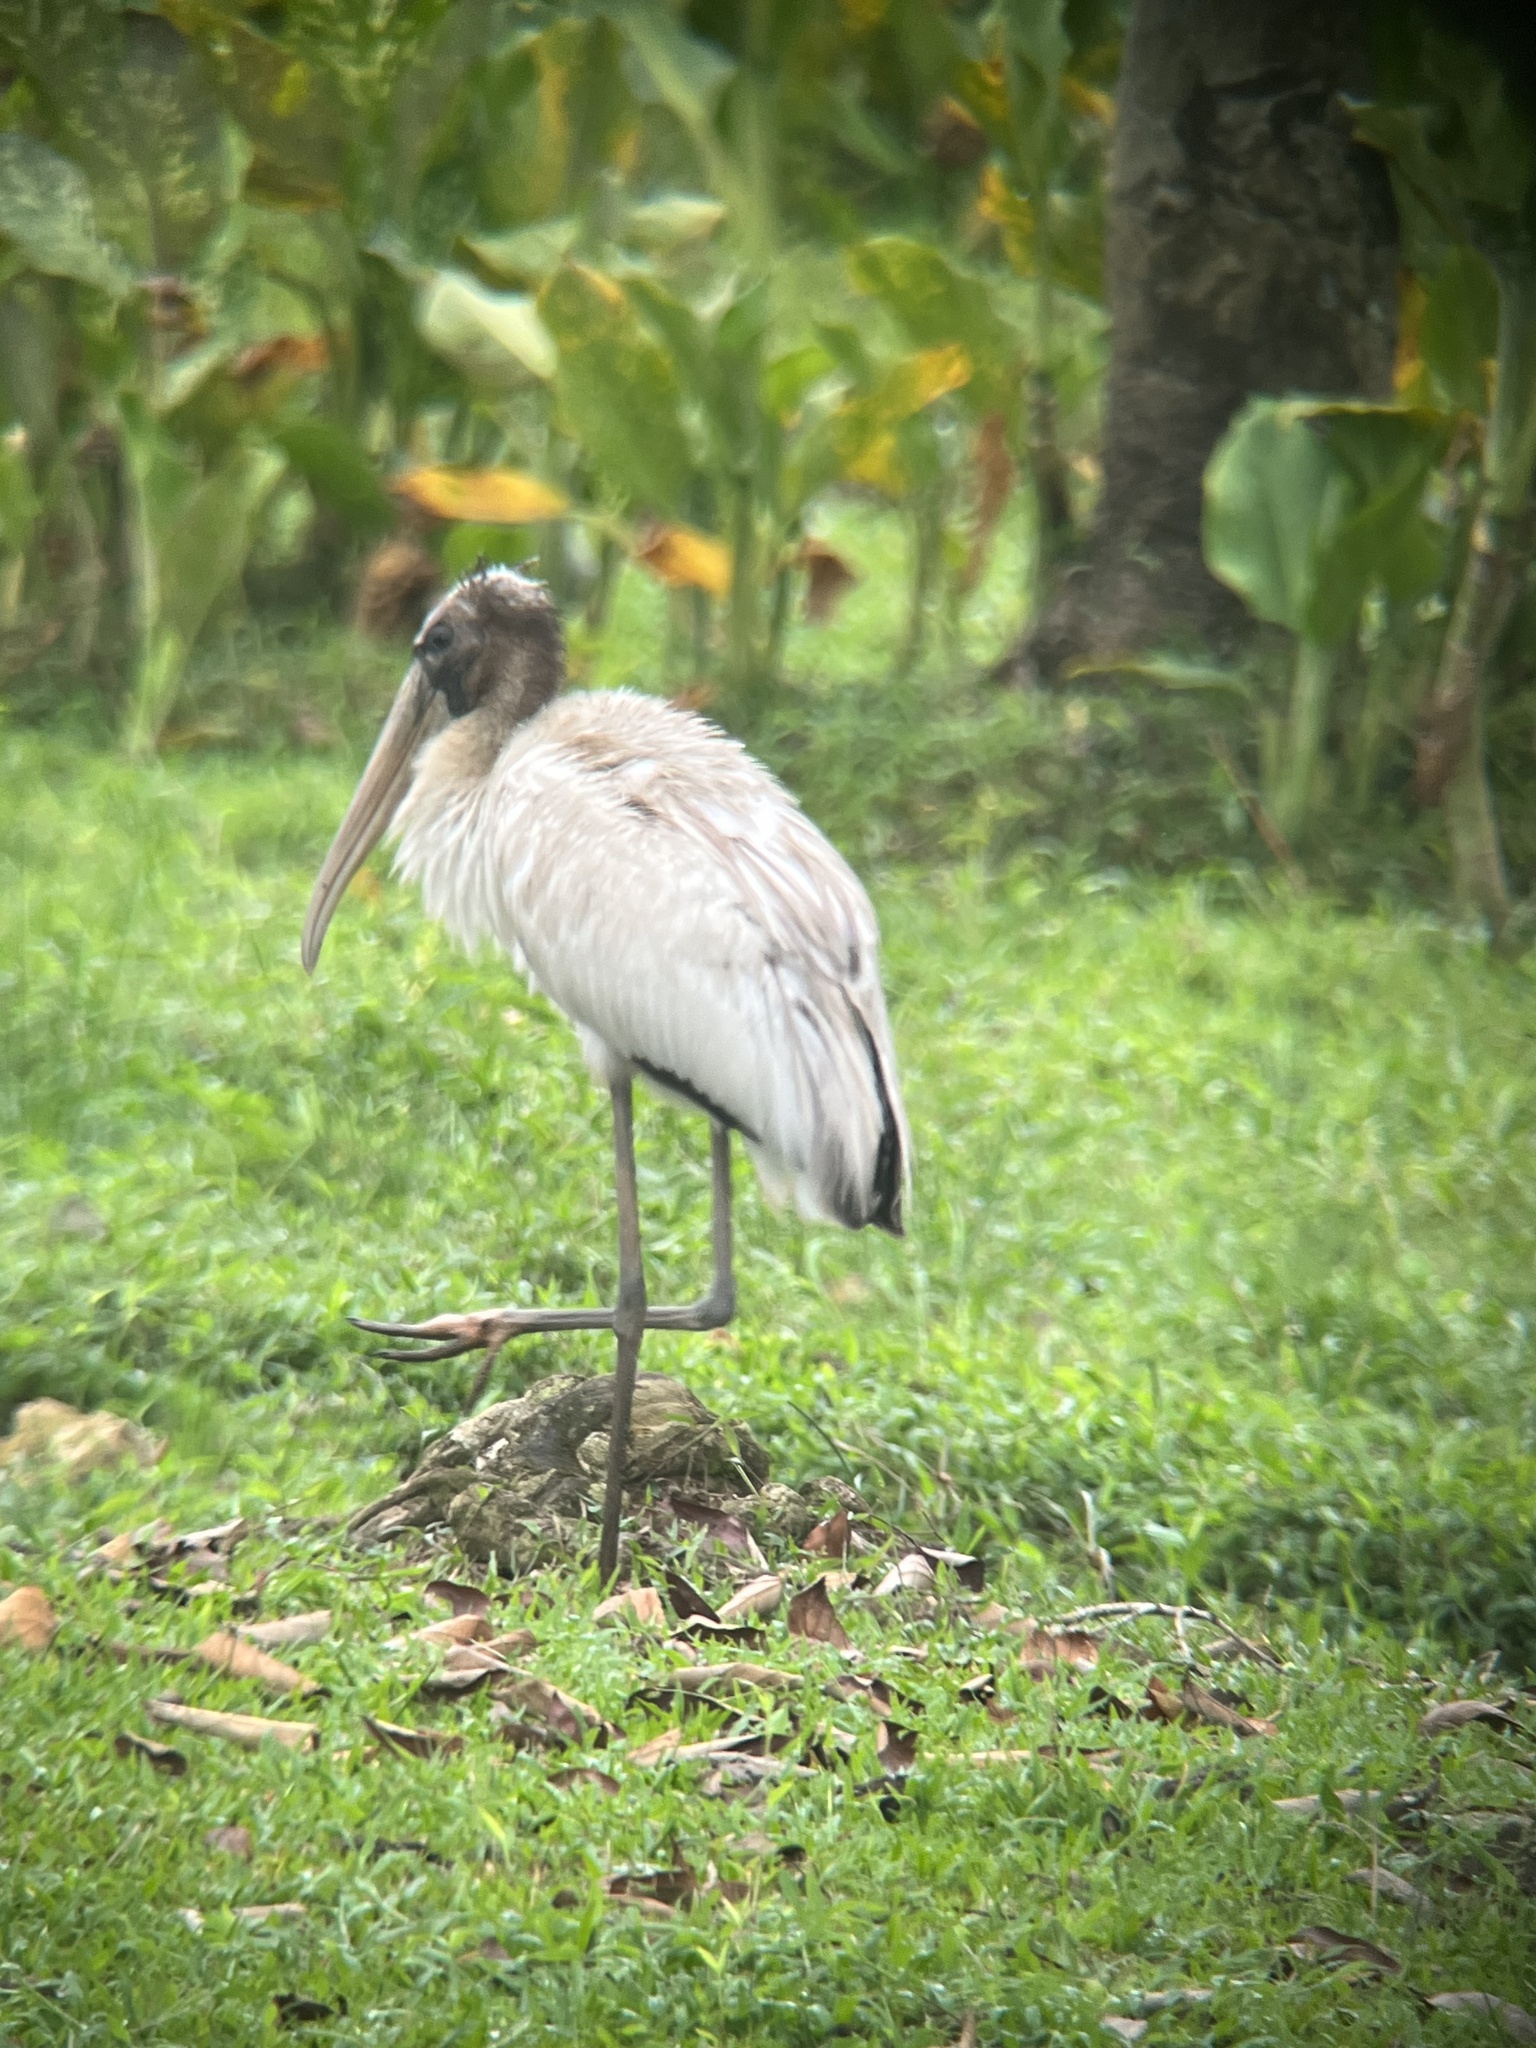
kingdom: Animalia
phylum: Chordata
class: Aves
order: Ciconiiformes
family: Ciconiidae
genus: Mycteria
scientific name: Mycteria americana
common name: Wood stork
